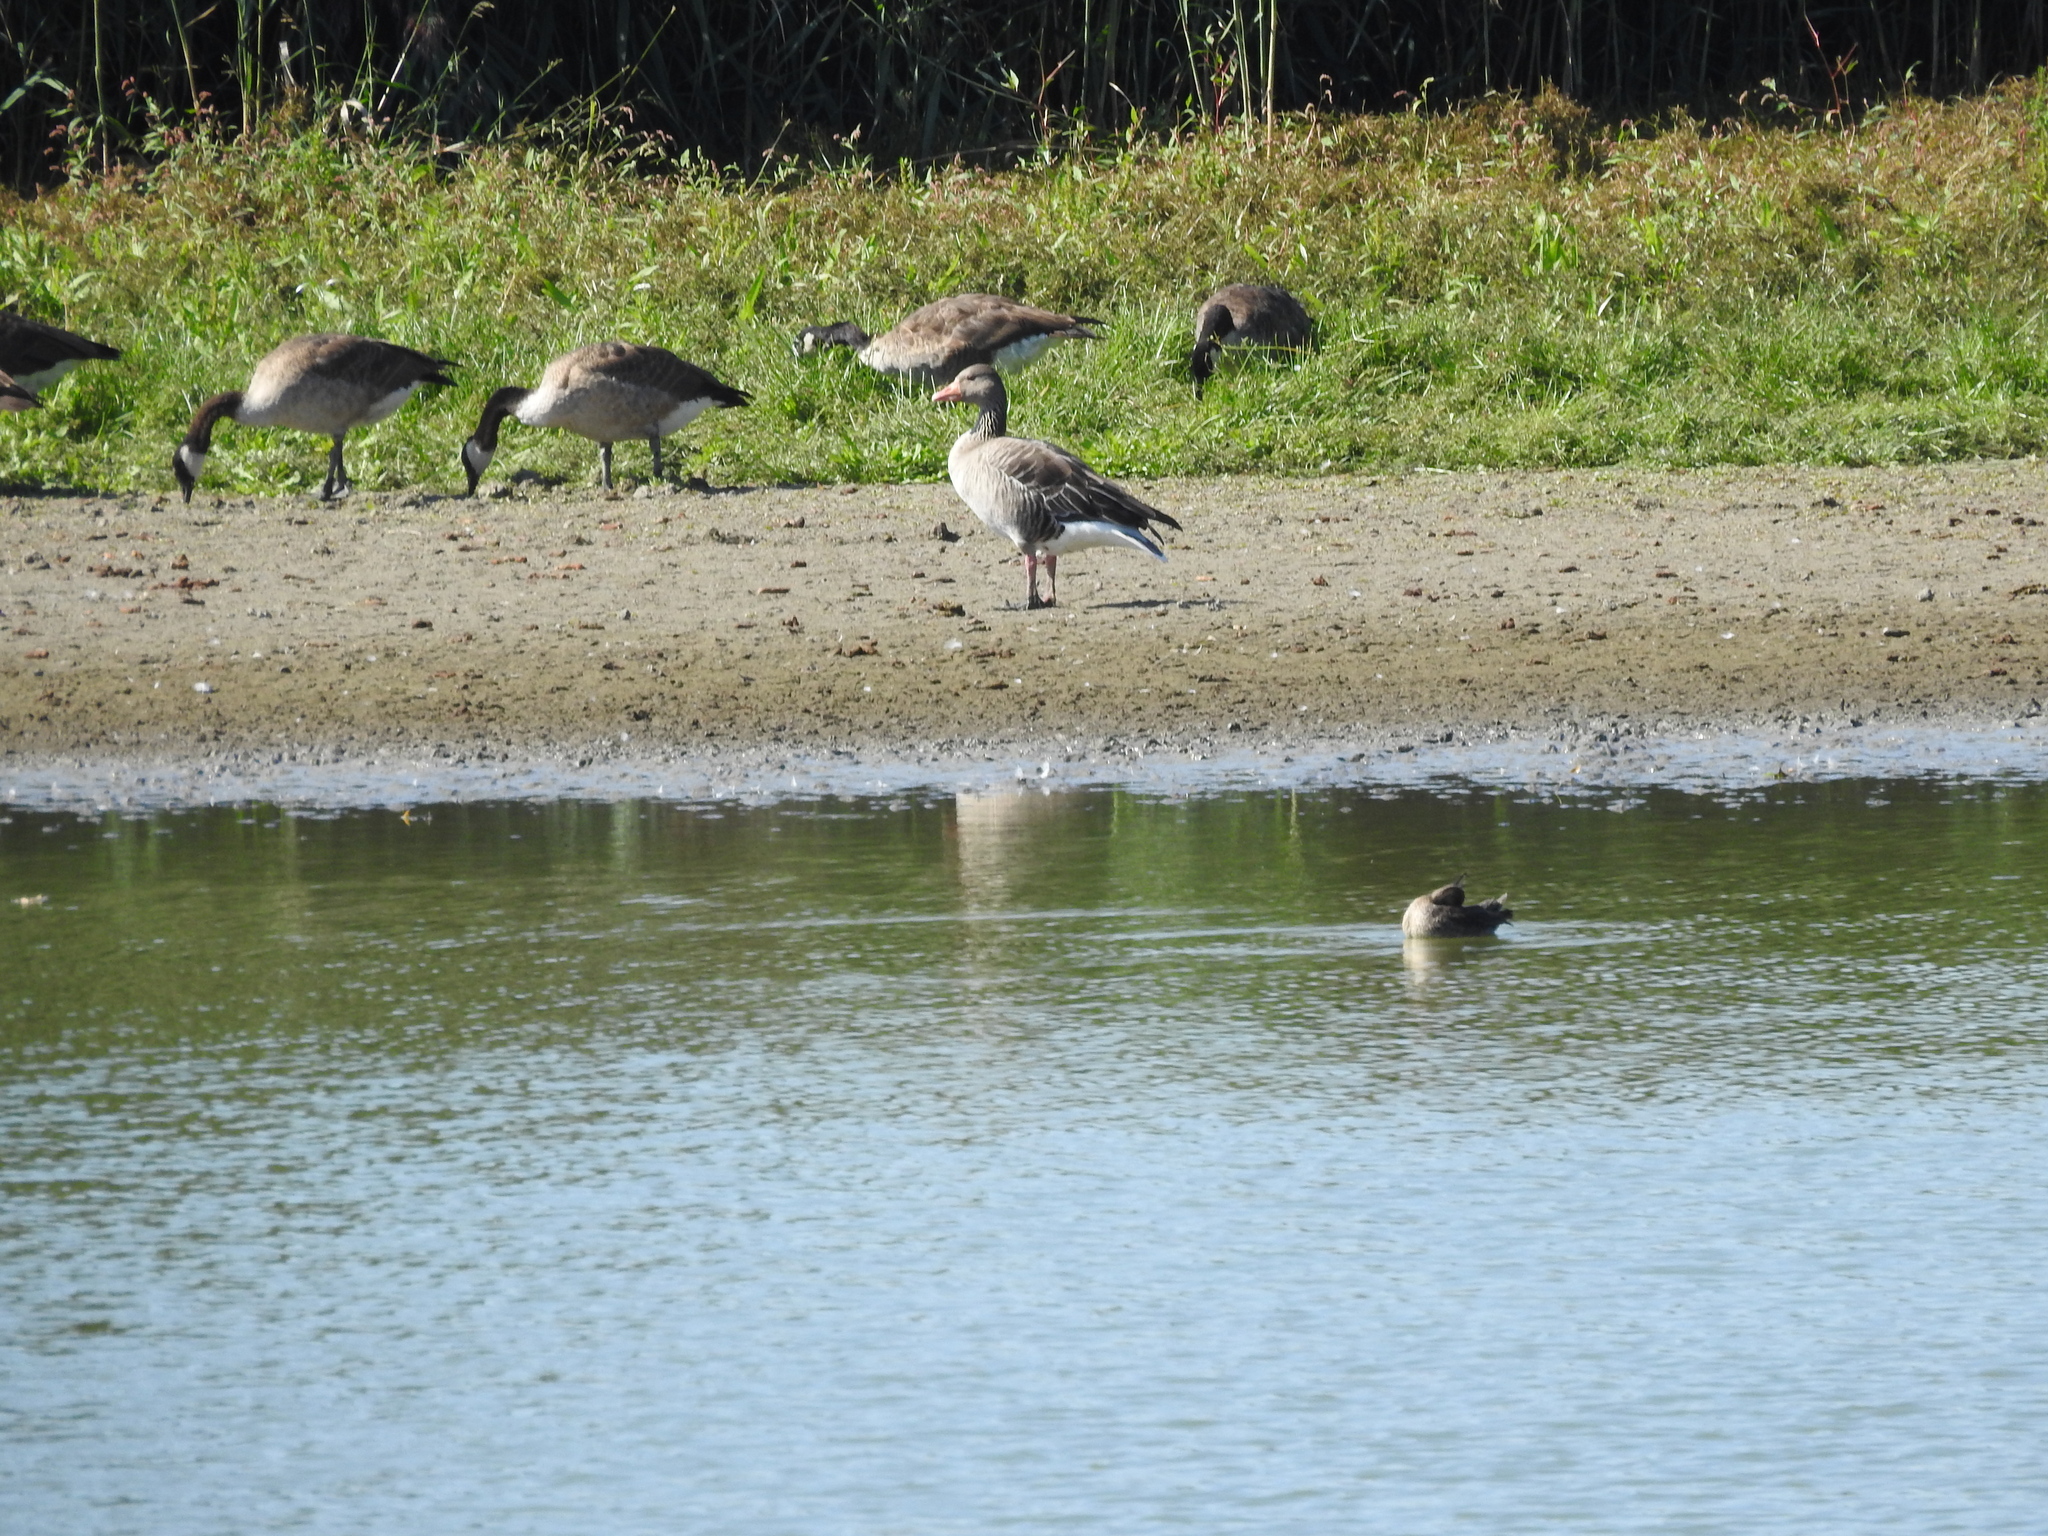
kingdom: Animalia
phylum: Chordata
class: Aves
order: Anseriformes
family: Anatidae
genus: Anser
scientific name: Anser anser
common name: Greylag goose
